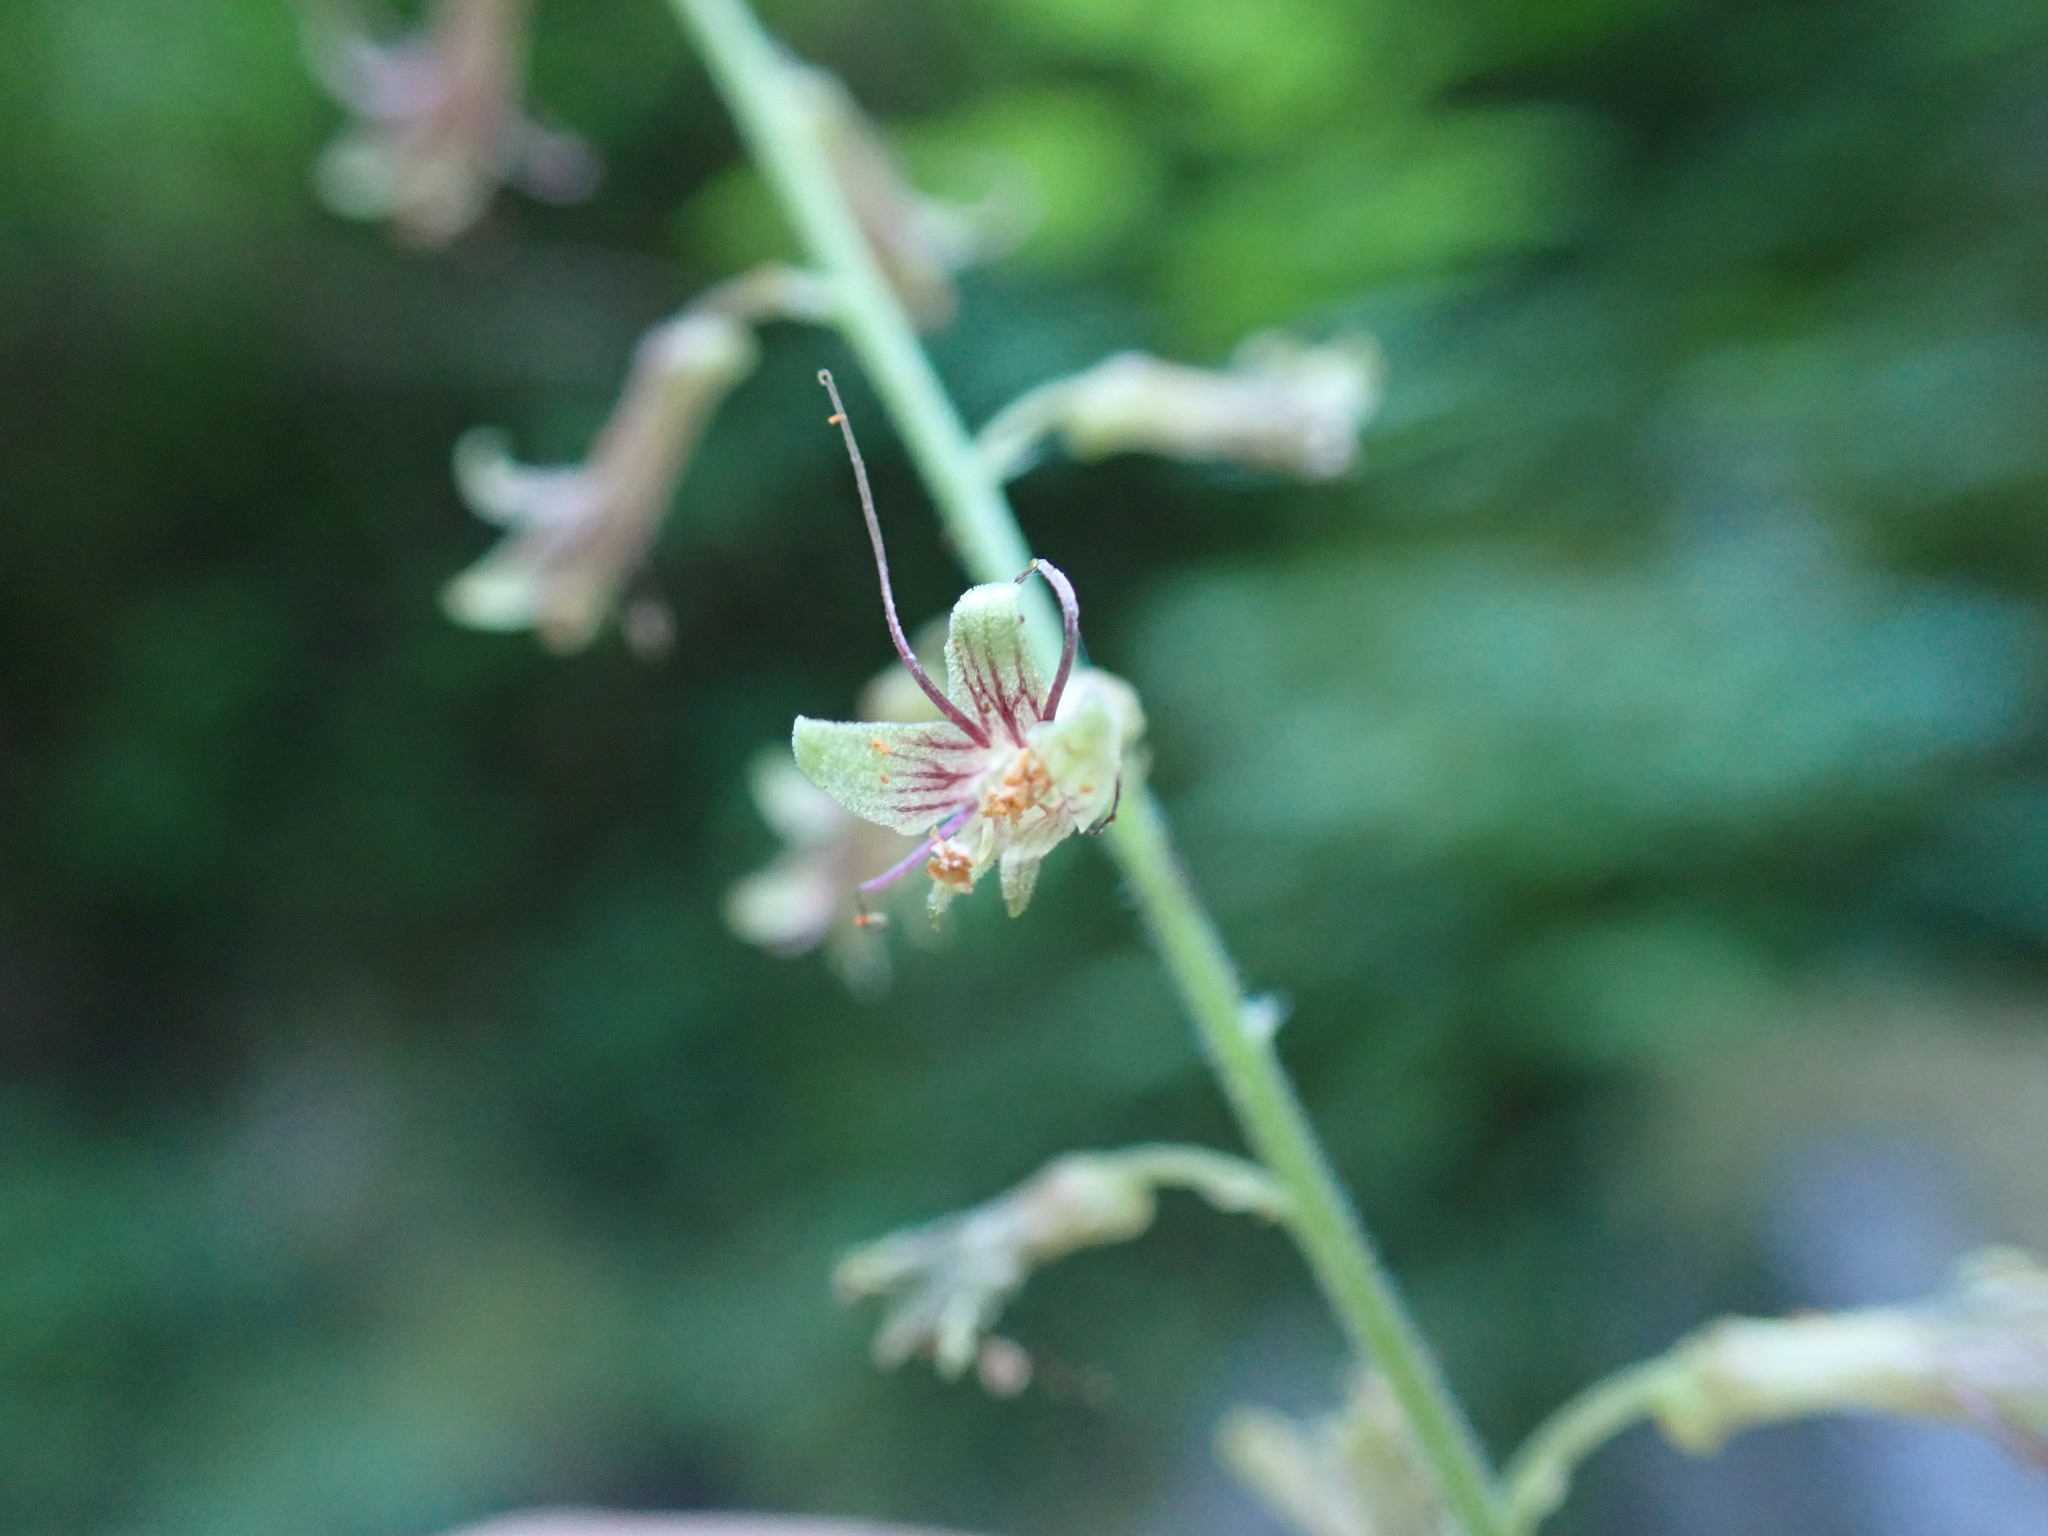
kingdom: Plantae
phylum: Tracheophyta
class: Magnoliopsida
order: Saxifragales
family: Saxifragaceae
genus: Tolmiea
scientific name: Tolmiea menziesii
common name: Pick-a-back-plant
